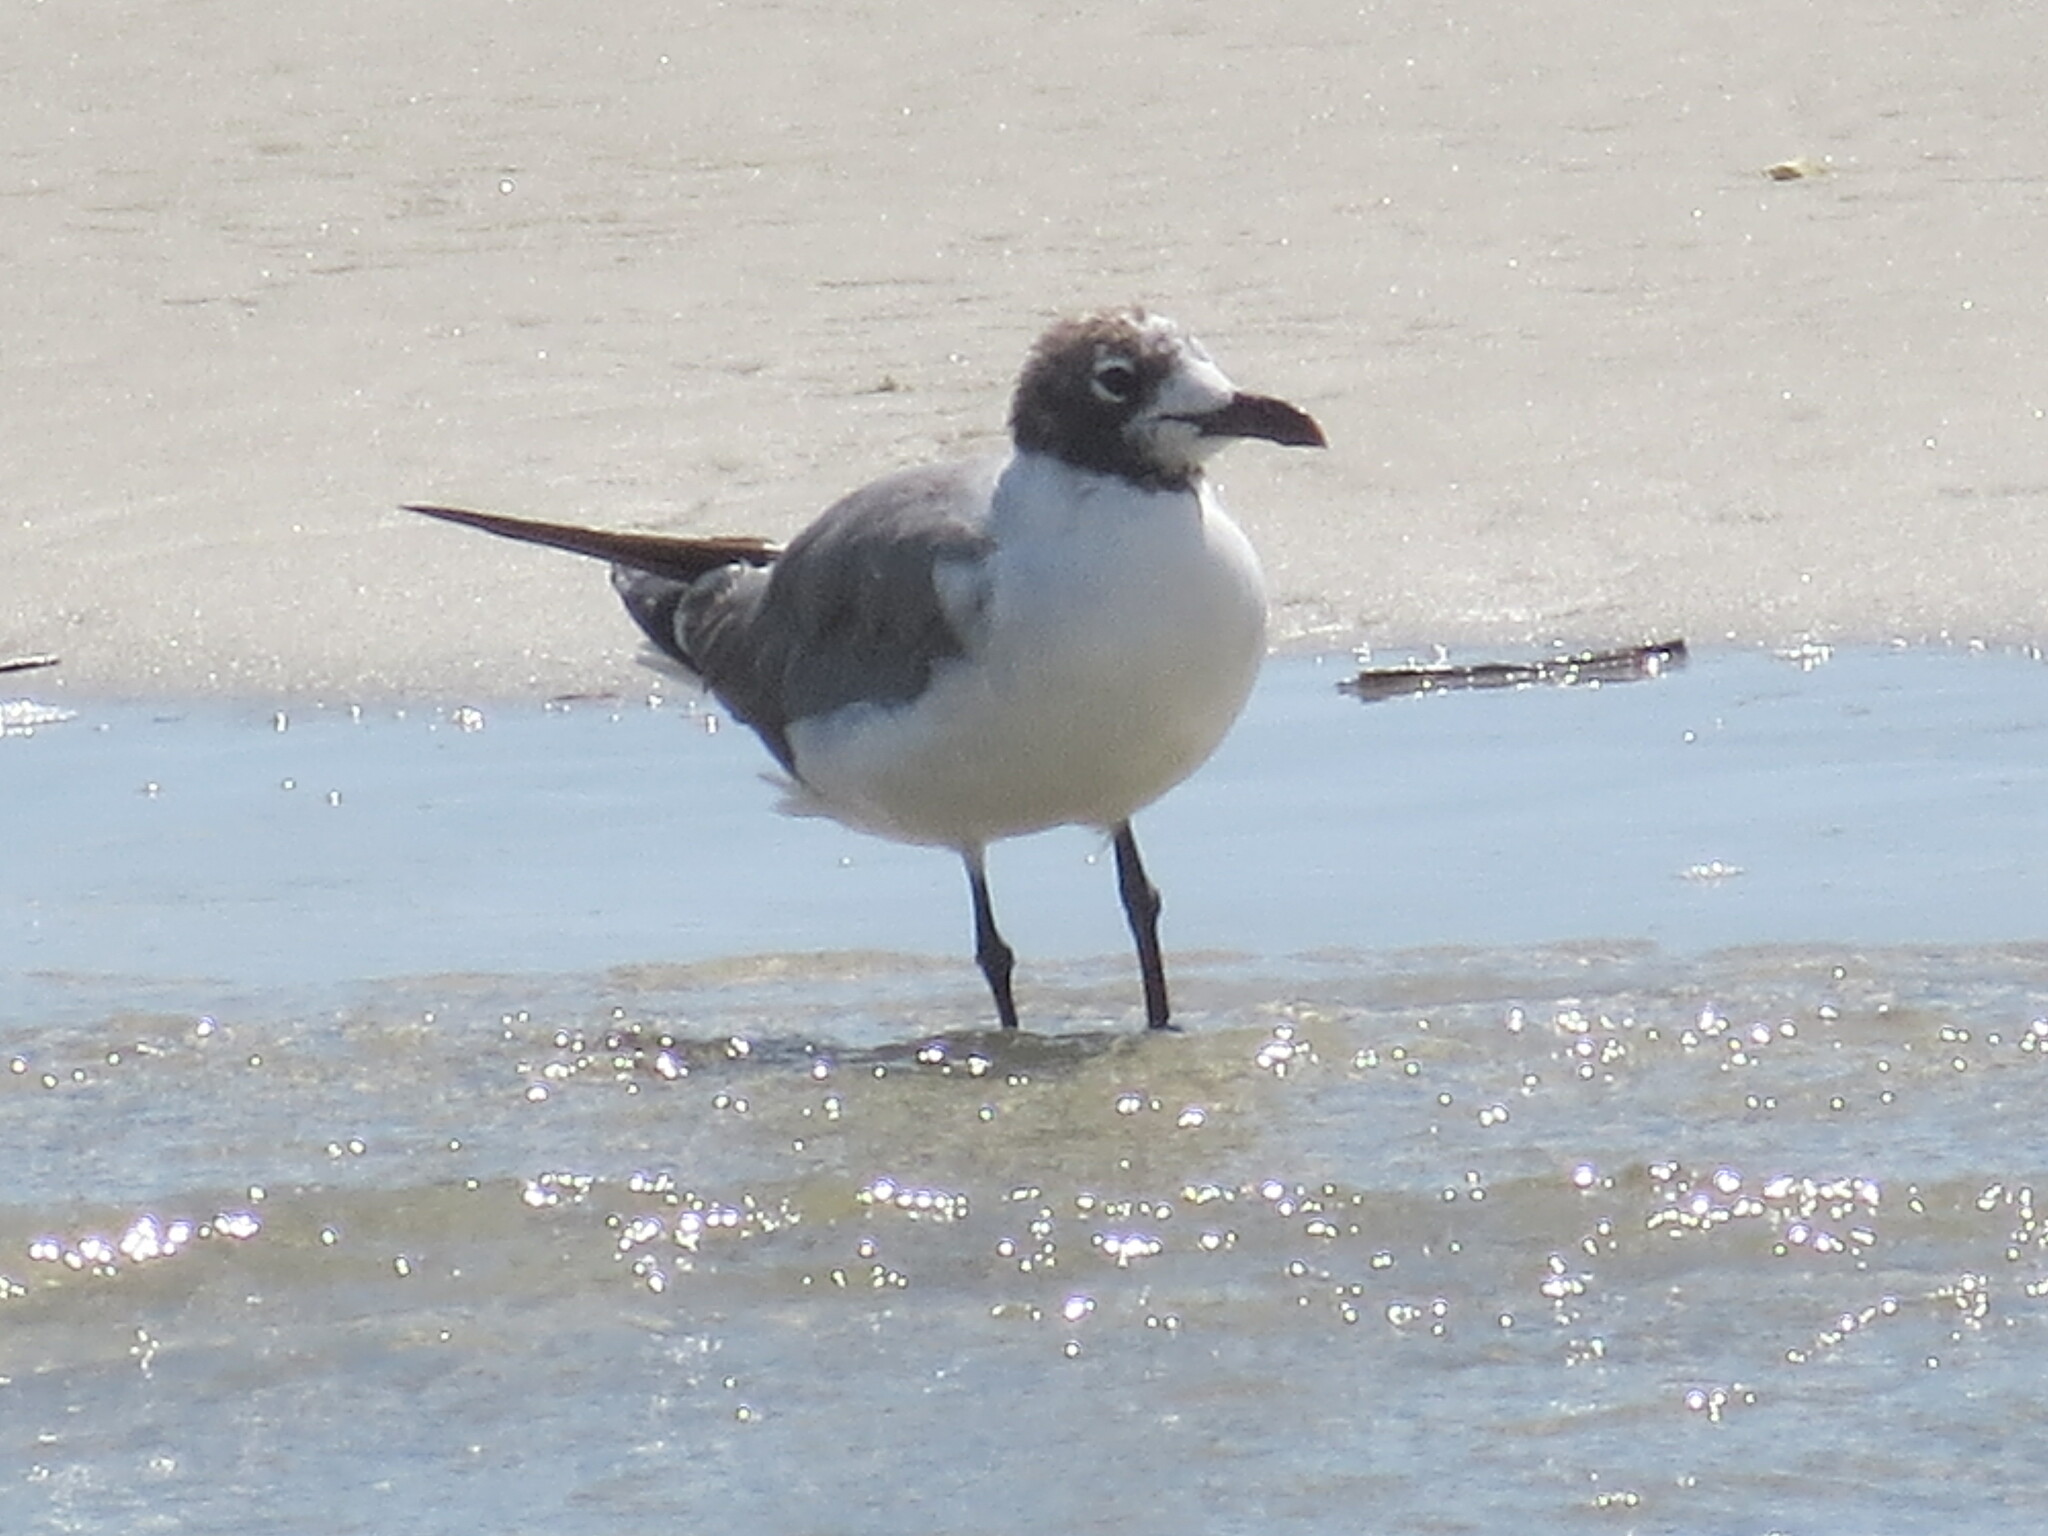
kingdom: Animalia
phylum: Chordata
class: Aves
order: Charadriiformes
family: Laridae
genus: Leucophaeus
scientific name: Leucophaeus atricilla
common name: Laughing gull
